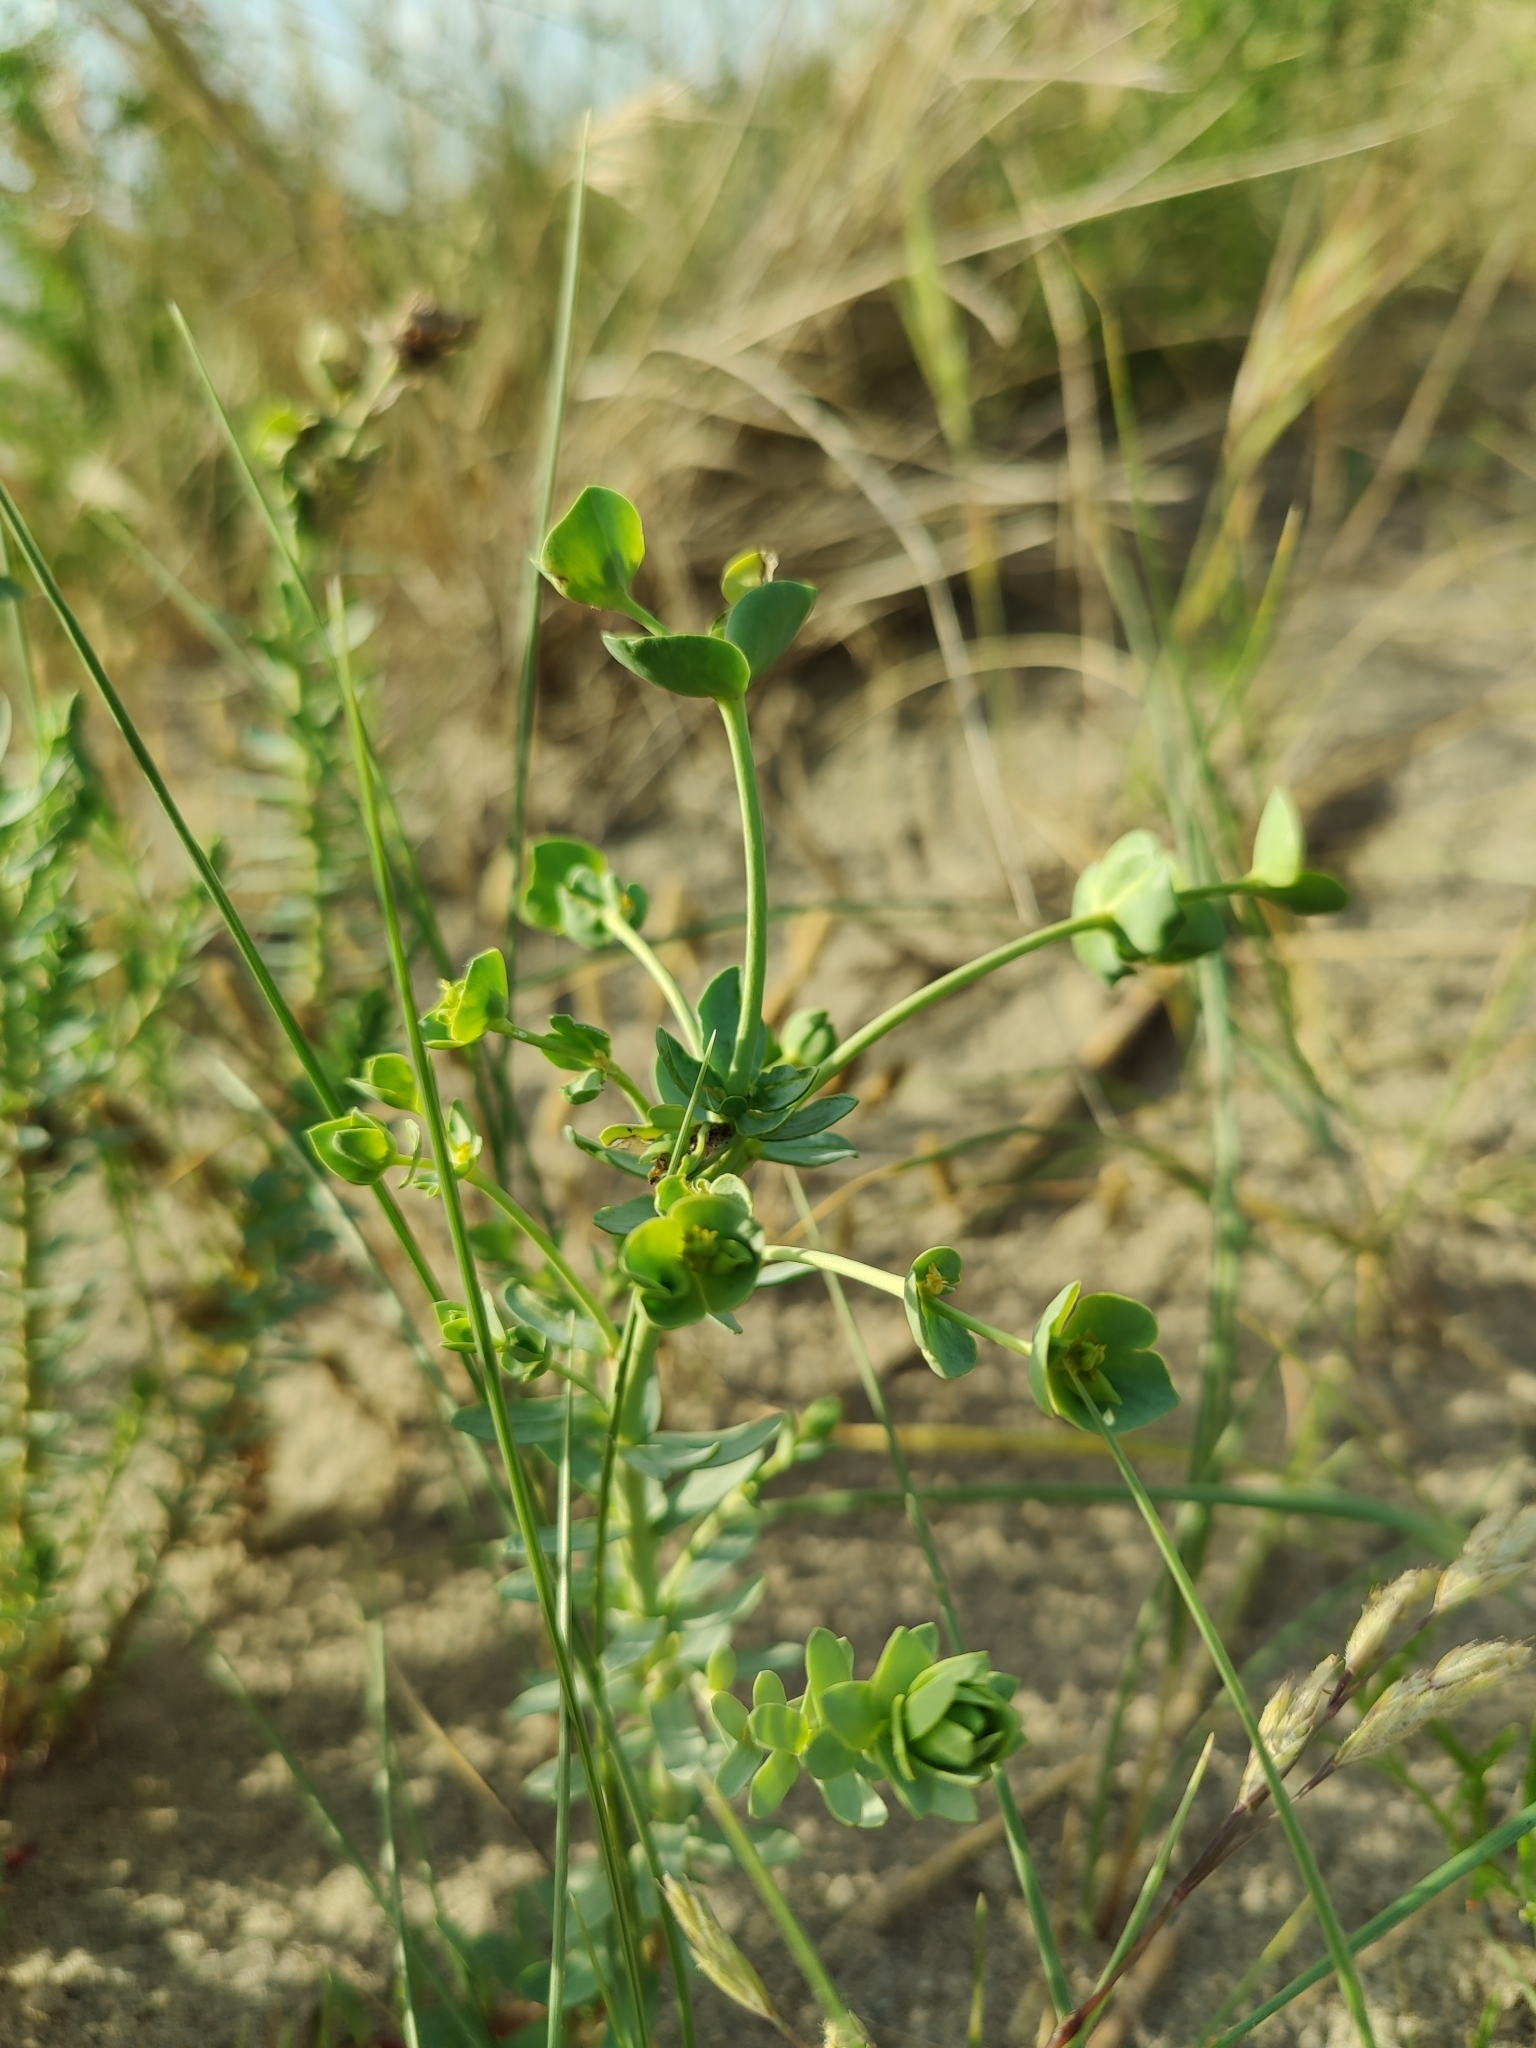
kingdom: Plantae
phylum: Tracheophyta
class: Magnoliopsida
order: Malpighiales
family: Euphorbiaceae
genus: Euphorbia
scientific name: Euphorbia paralias
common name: Sea spurge
